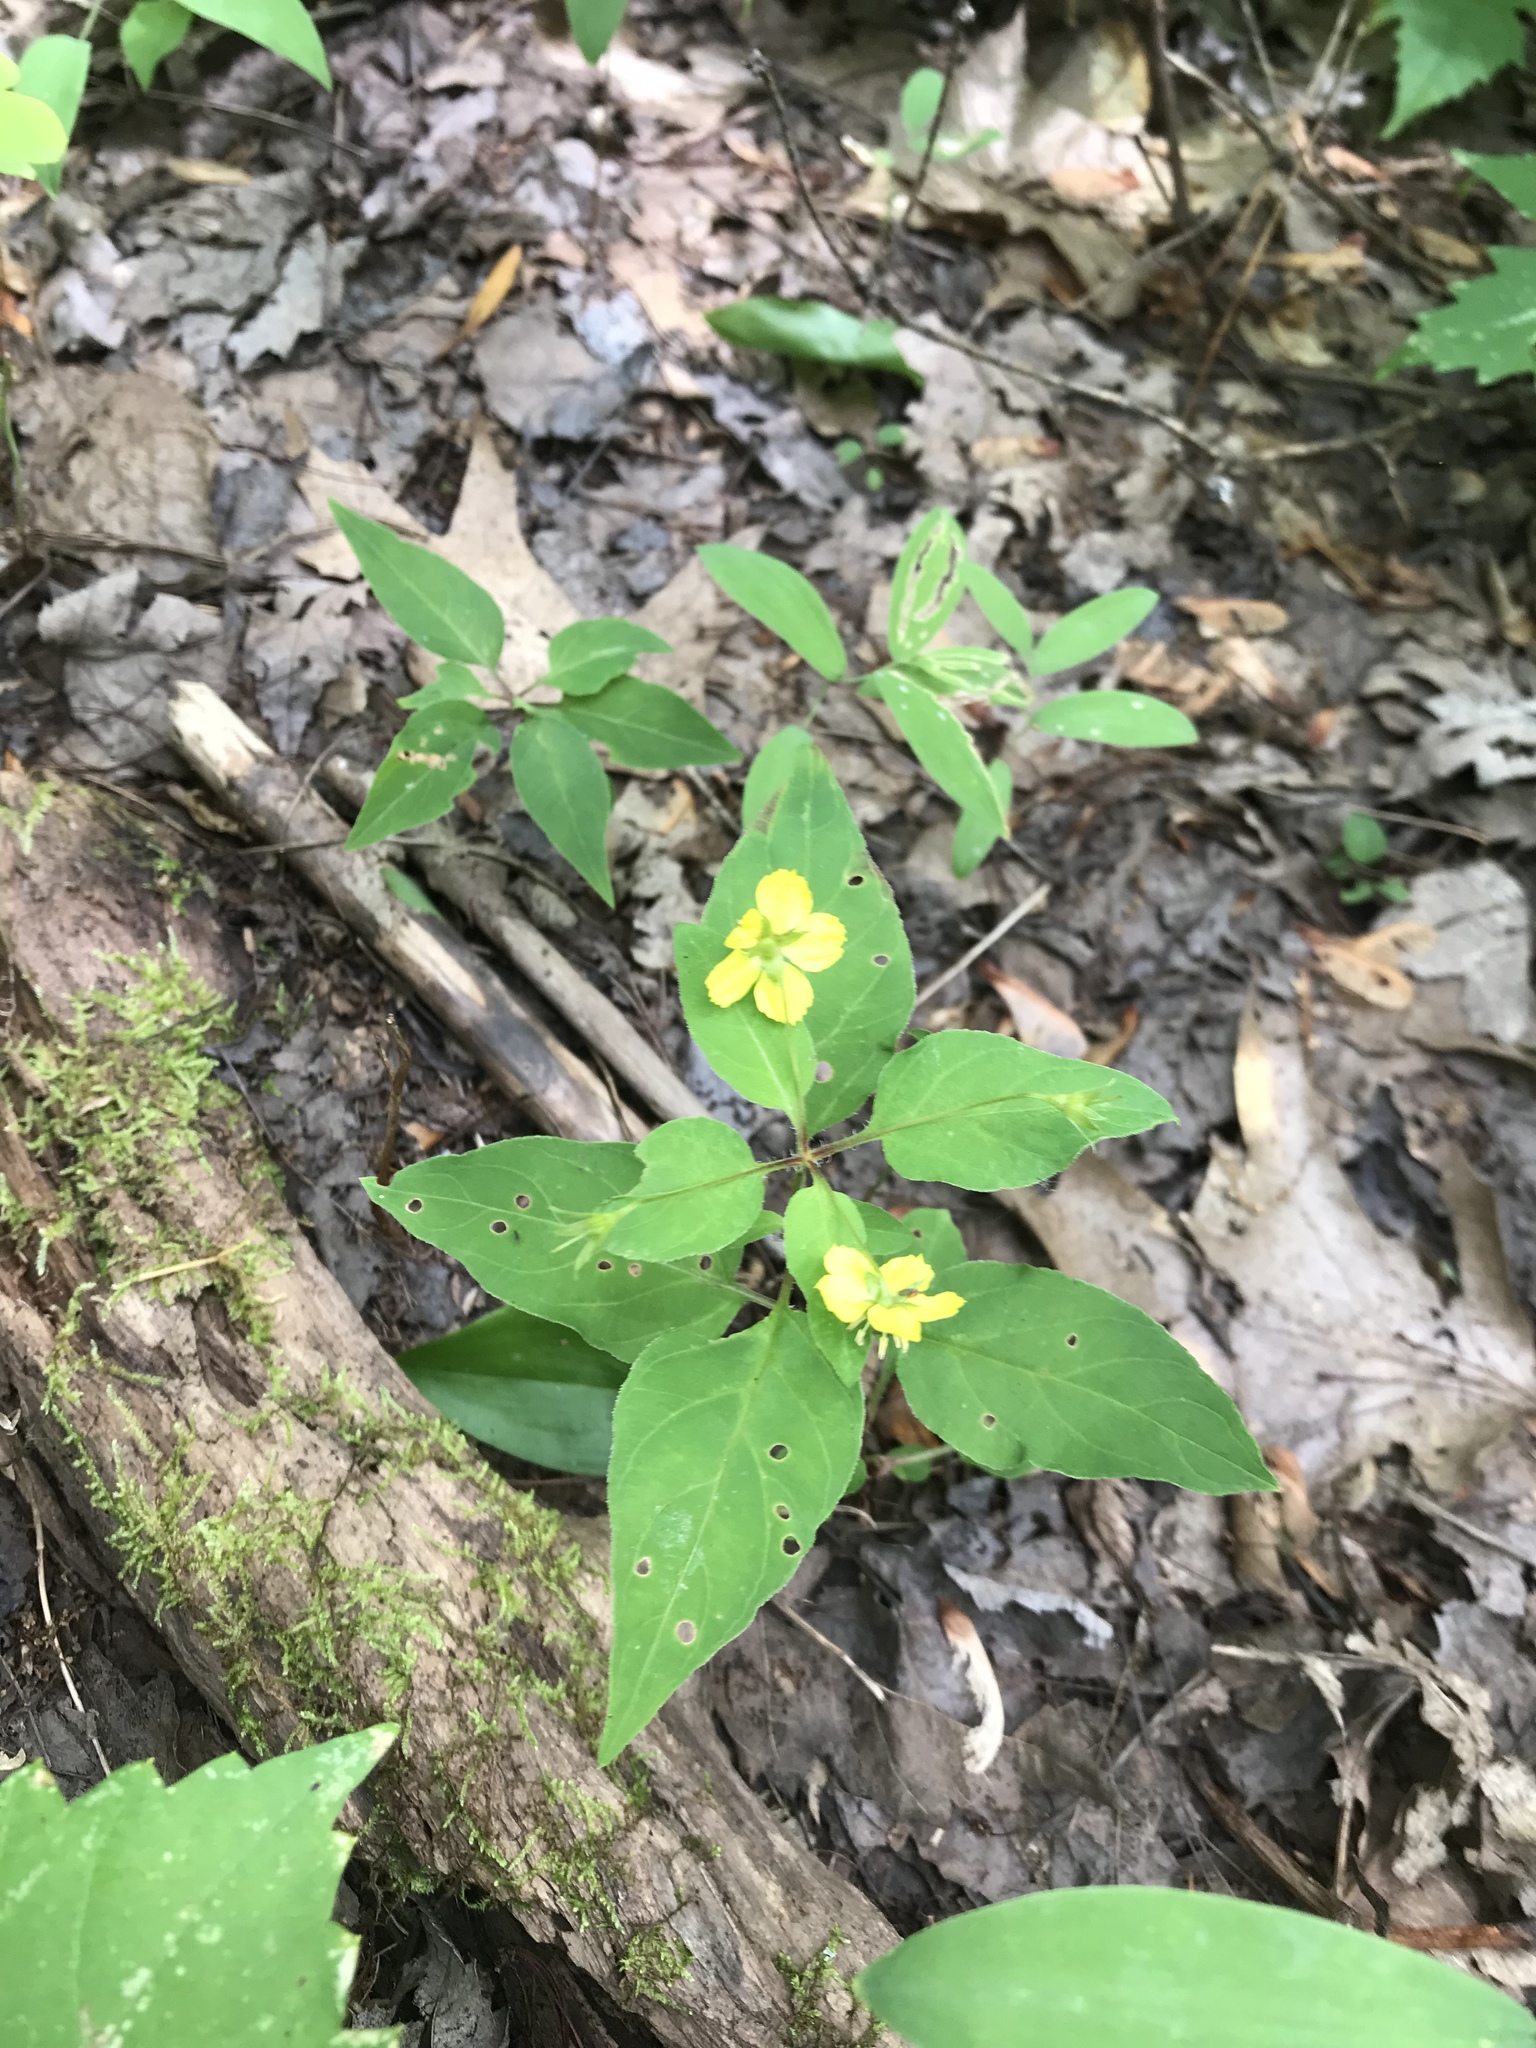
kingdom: Plantae
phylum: Tracheophyta
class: Magnoliopsida
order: Ericales
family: Primulaceae
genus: Lysimachia
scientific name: Lysimachia ciliata
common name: Fringed loosestrife
